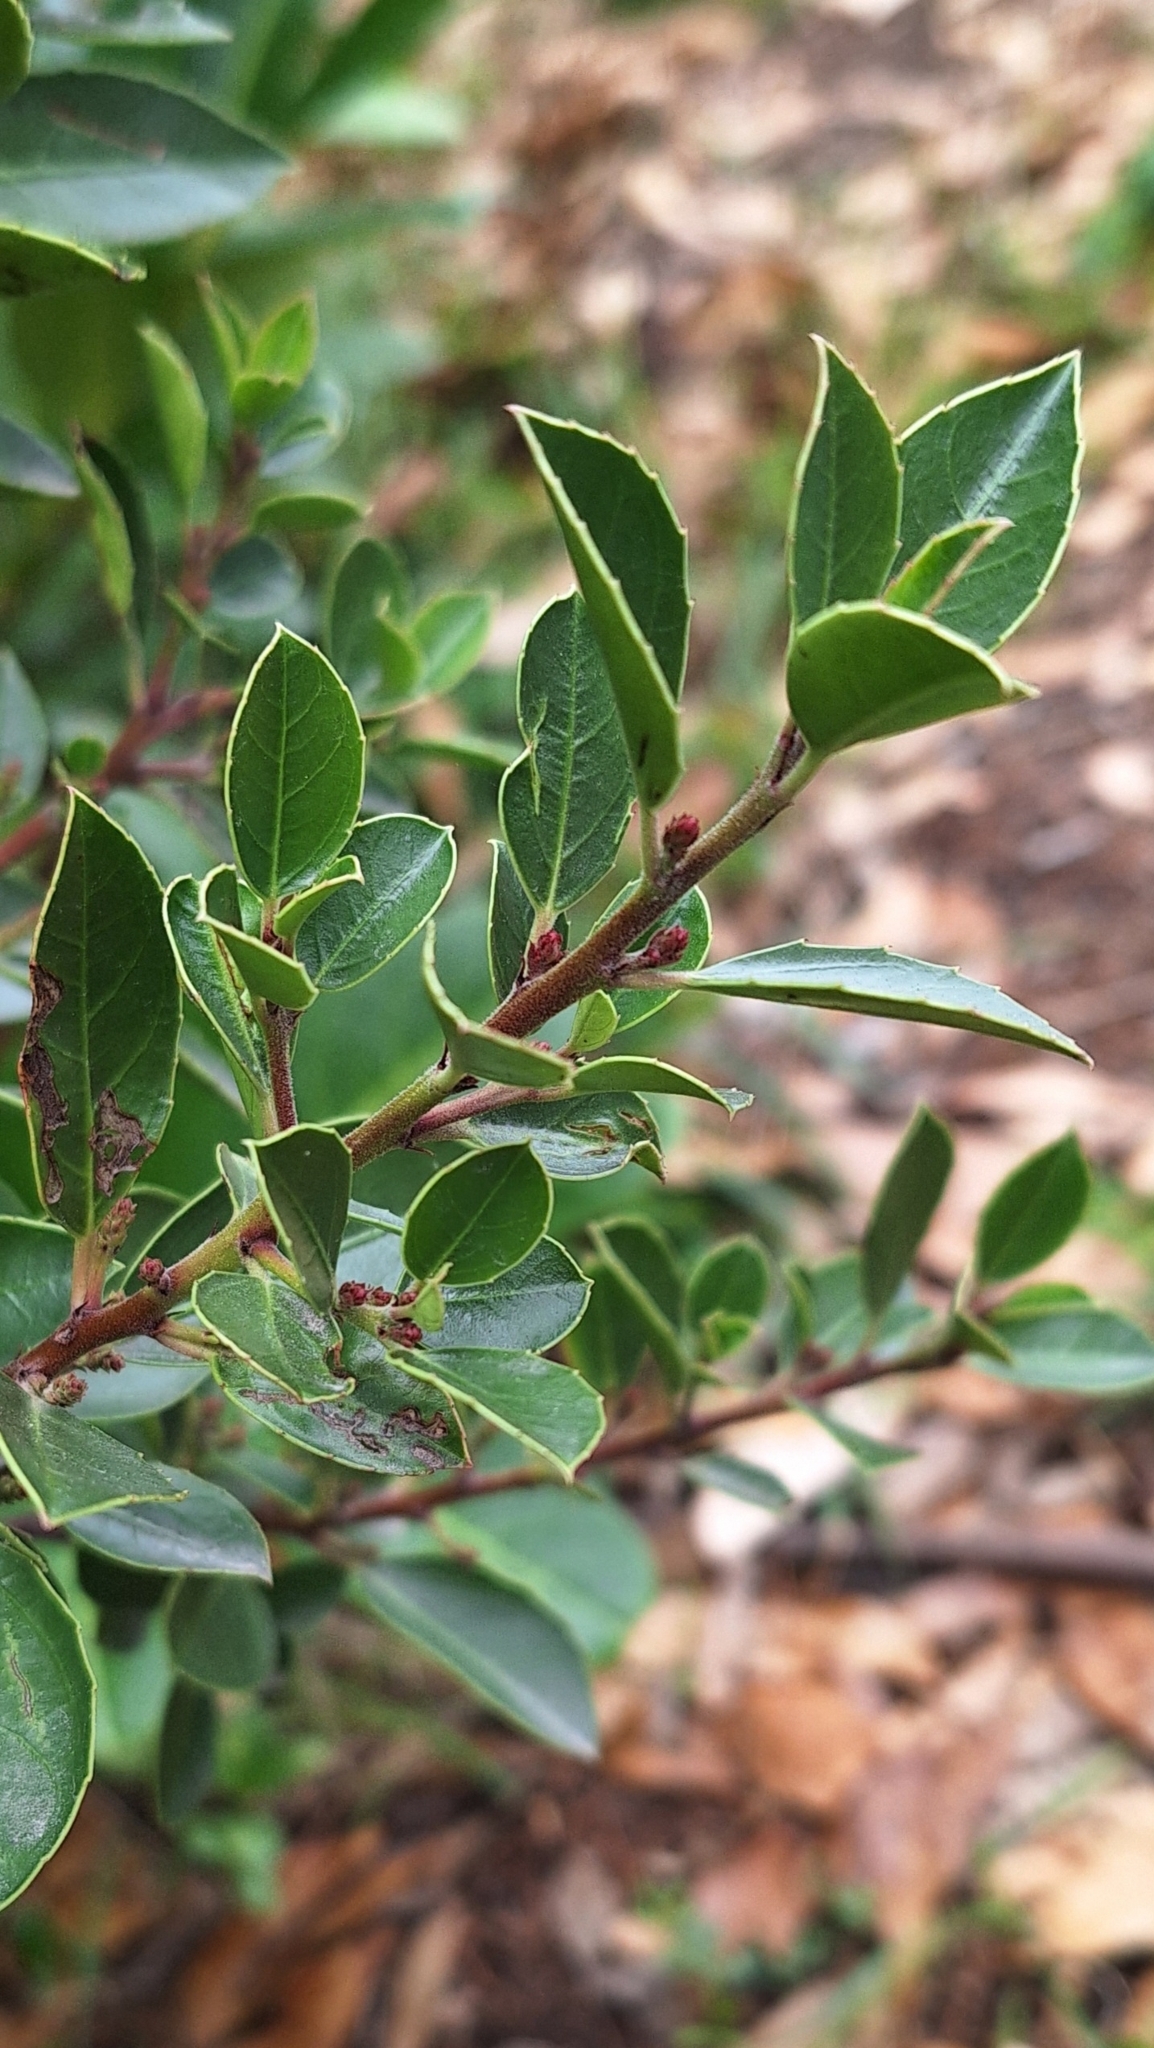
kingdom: Plantae
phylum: Tracheophyta
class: Magnoliopsida
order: Rosales
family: Rhamnaceae
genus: Rhamnus
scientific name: Rhamnus alaternus
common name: Mediterranean buckthorn
